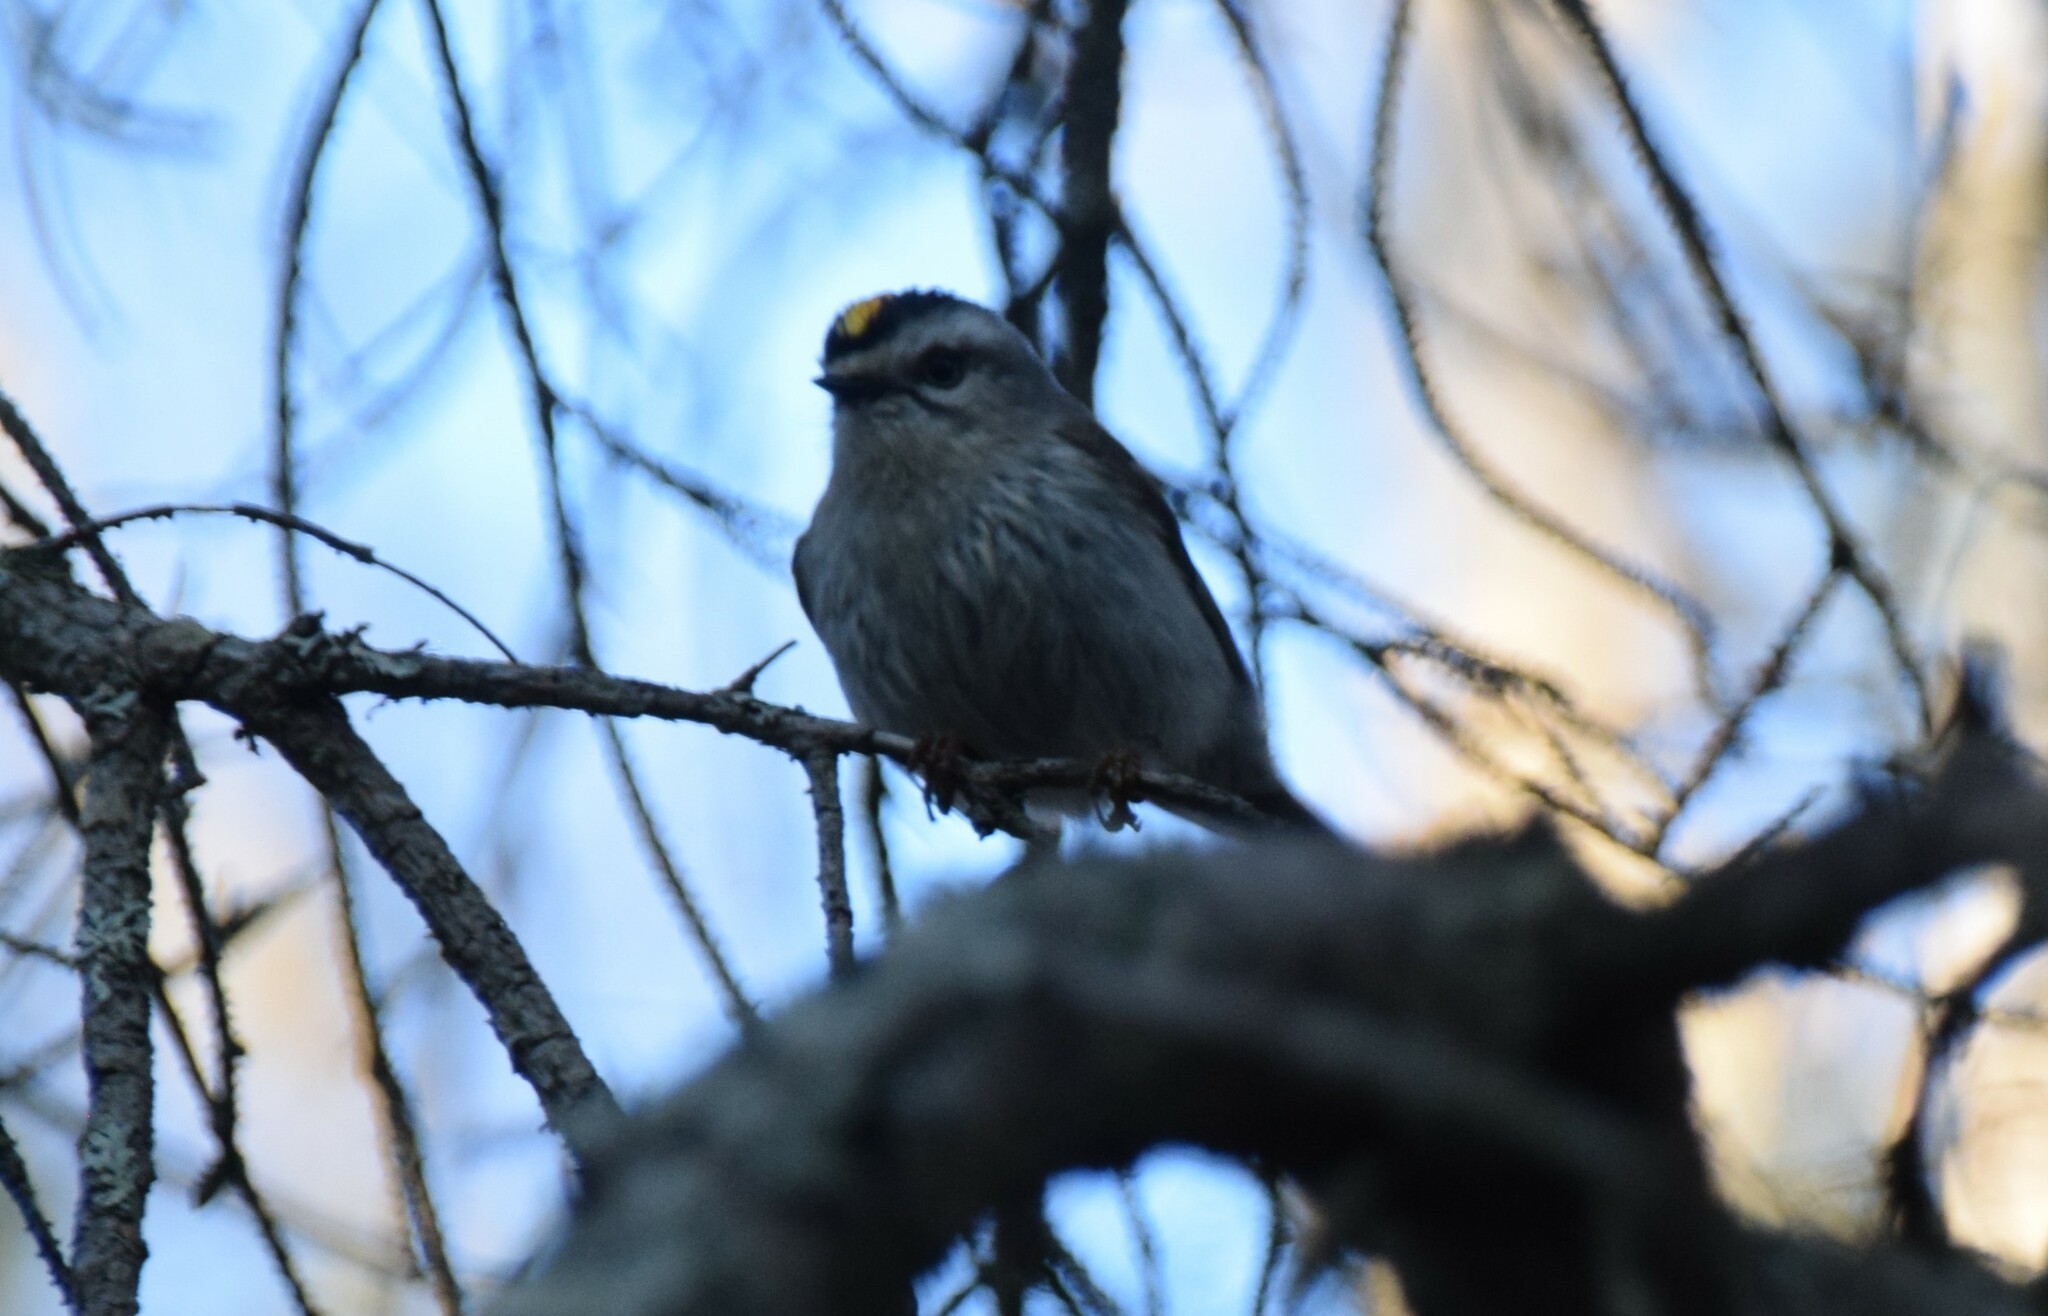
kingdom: Animalia
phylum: Chordata
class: Aves
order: Passeriformes
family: Regulidae
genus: Regulus
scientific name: Regulus satrapa
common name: Golden-crowned kinglet
